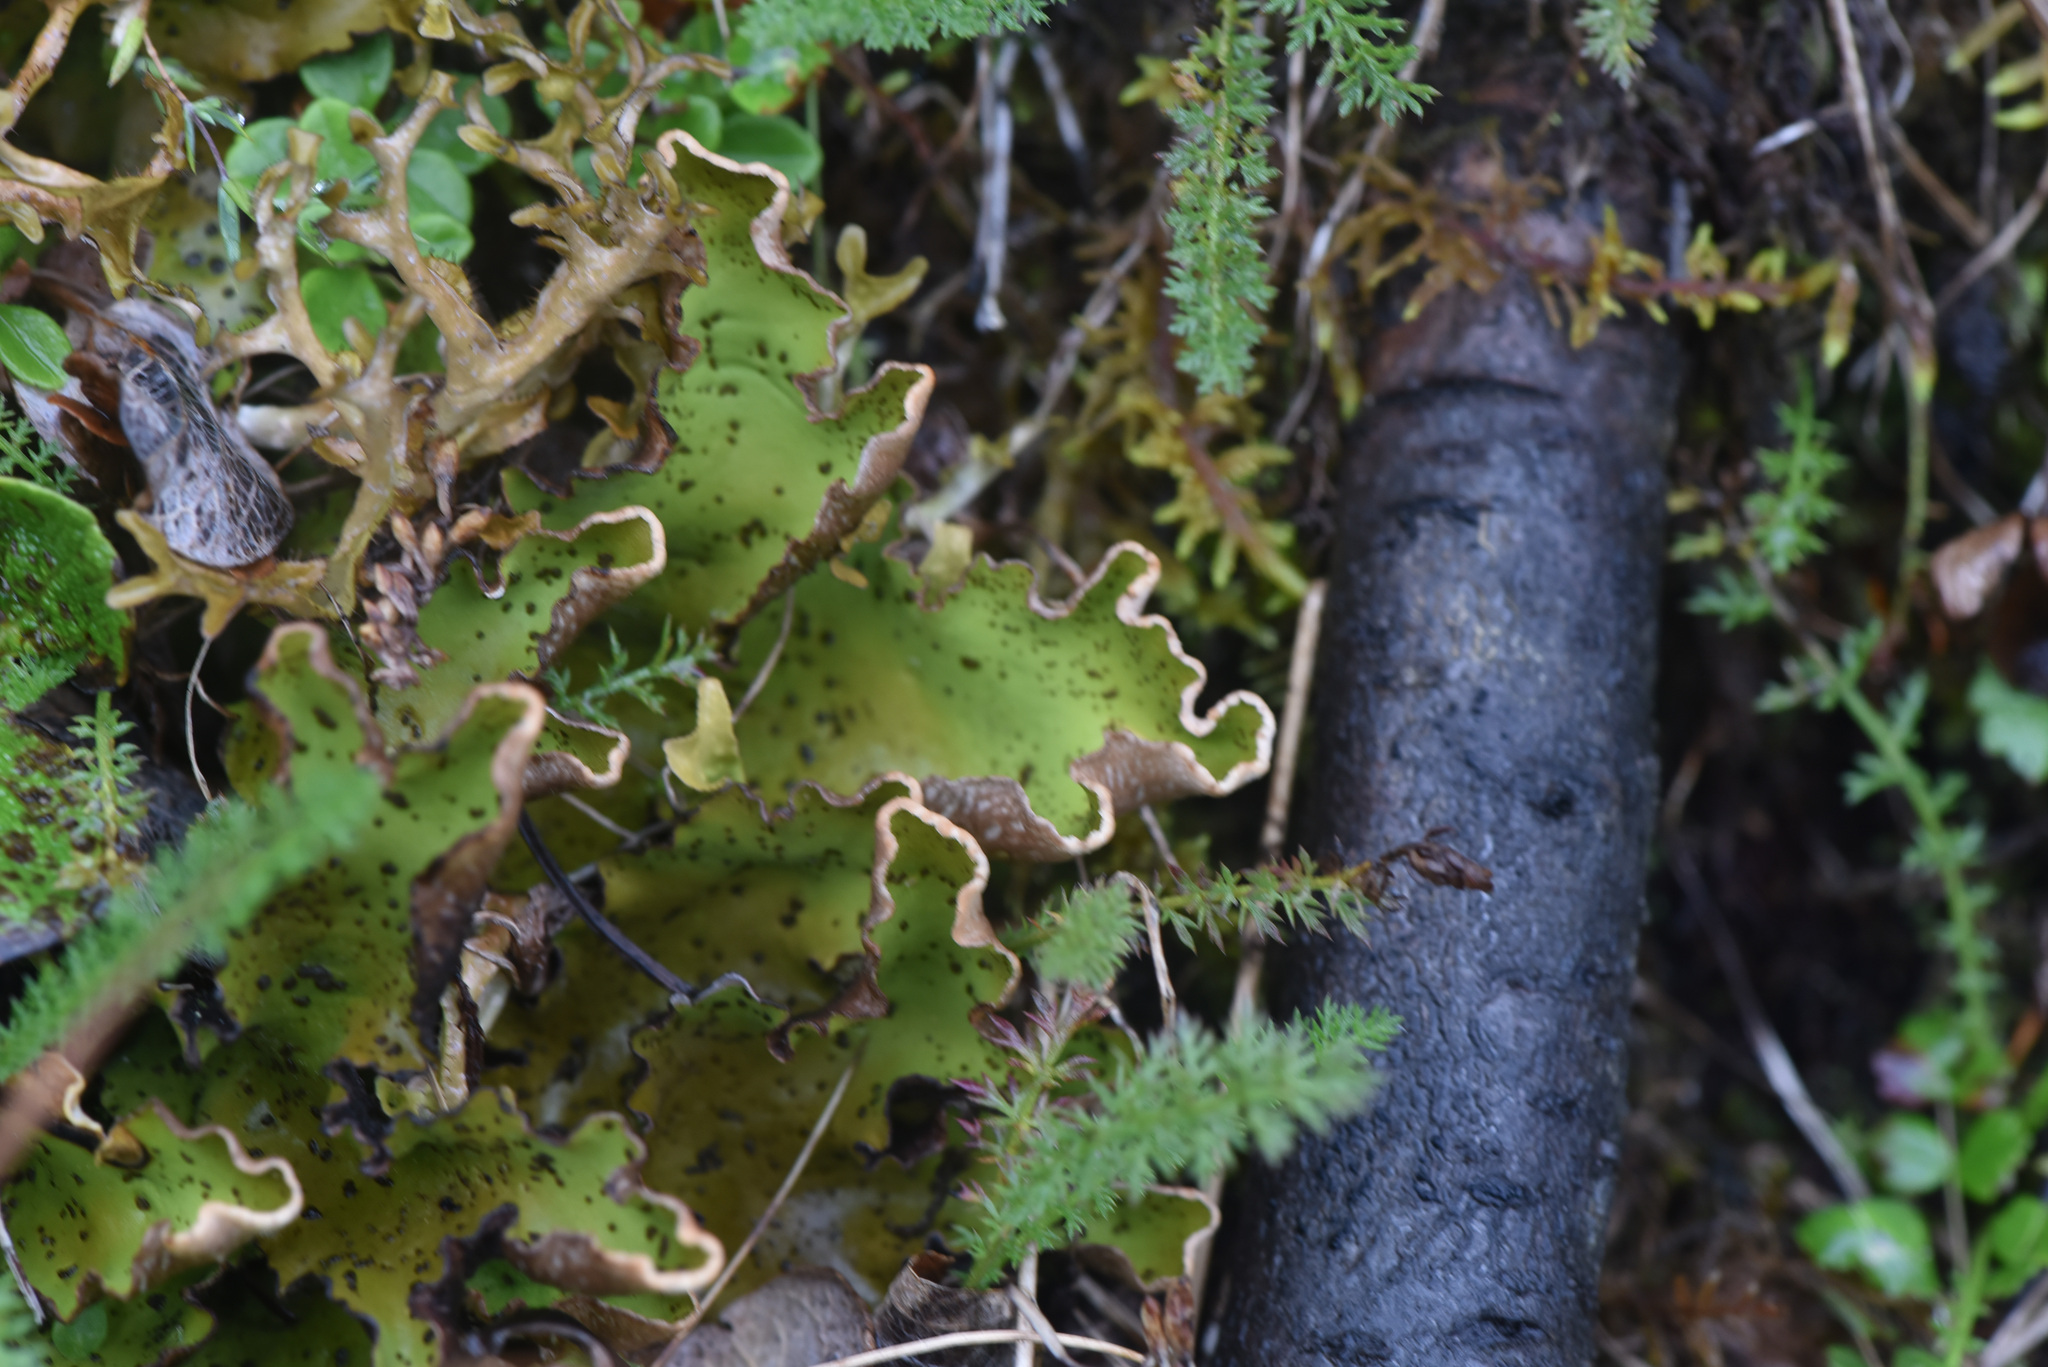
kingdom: Fungi
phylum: Ascomycota
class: Lecanoromycetes
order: Peltigerales
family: Peltigeraceae
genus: Peltigera
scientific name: Peltigera aphthosa
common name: Common freckle pelt lichen
